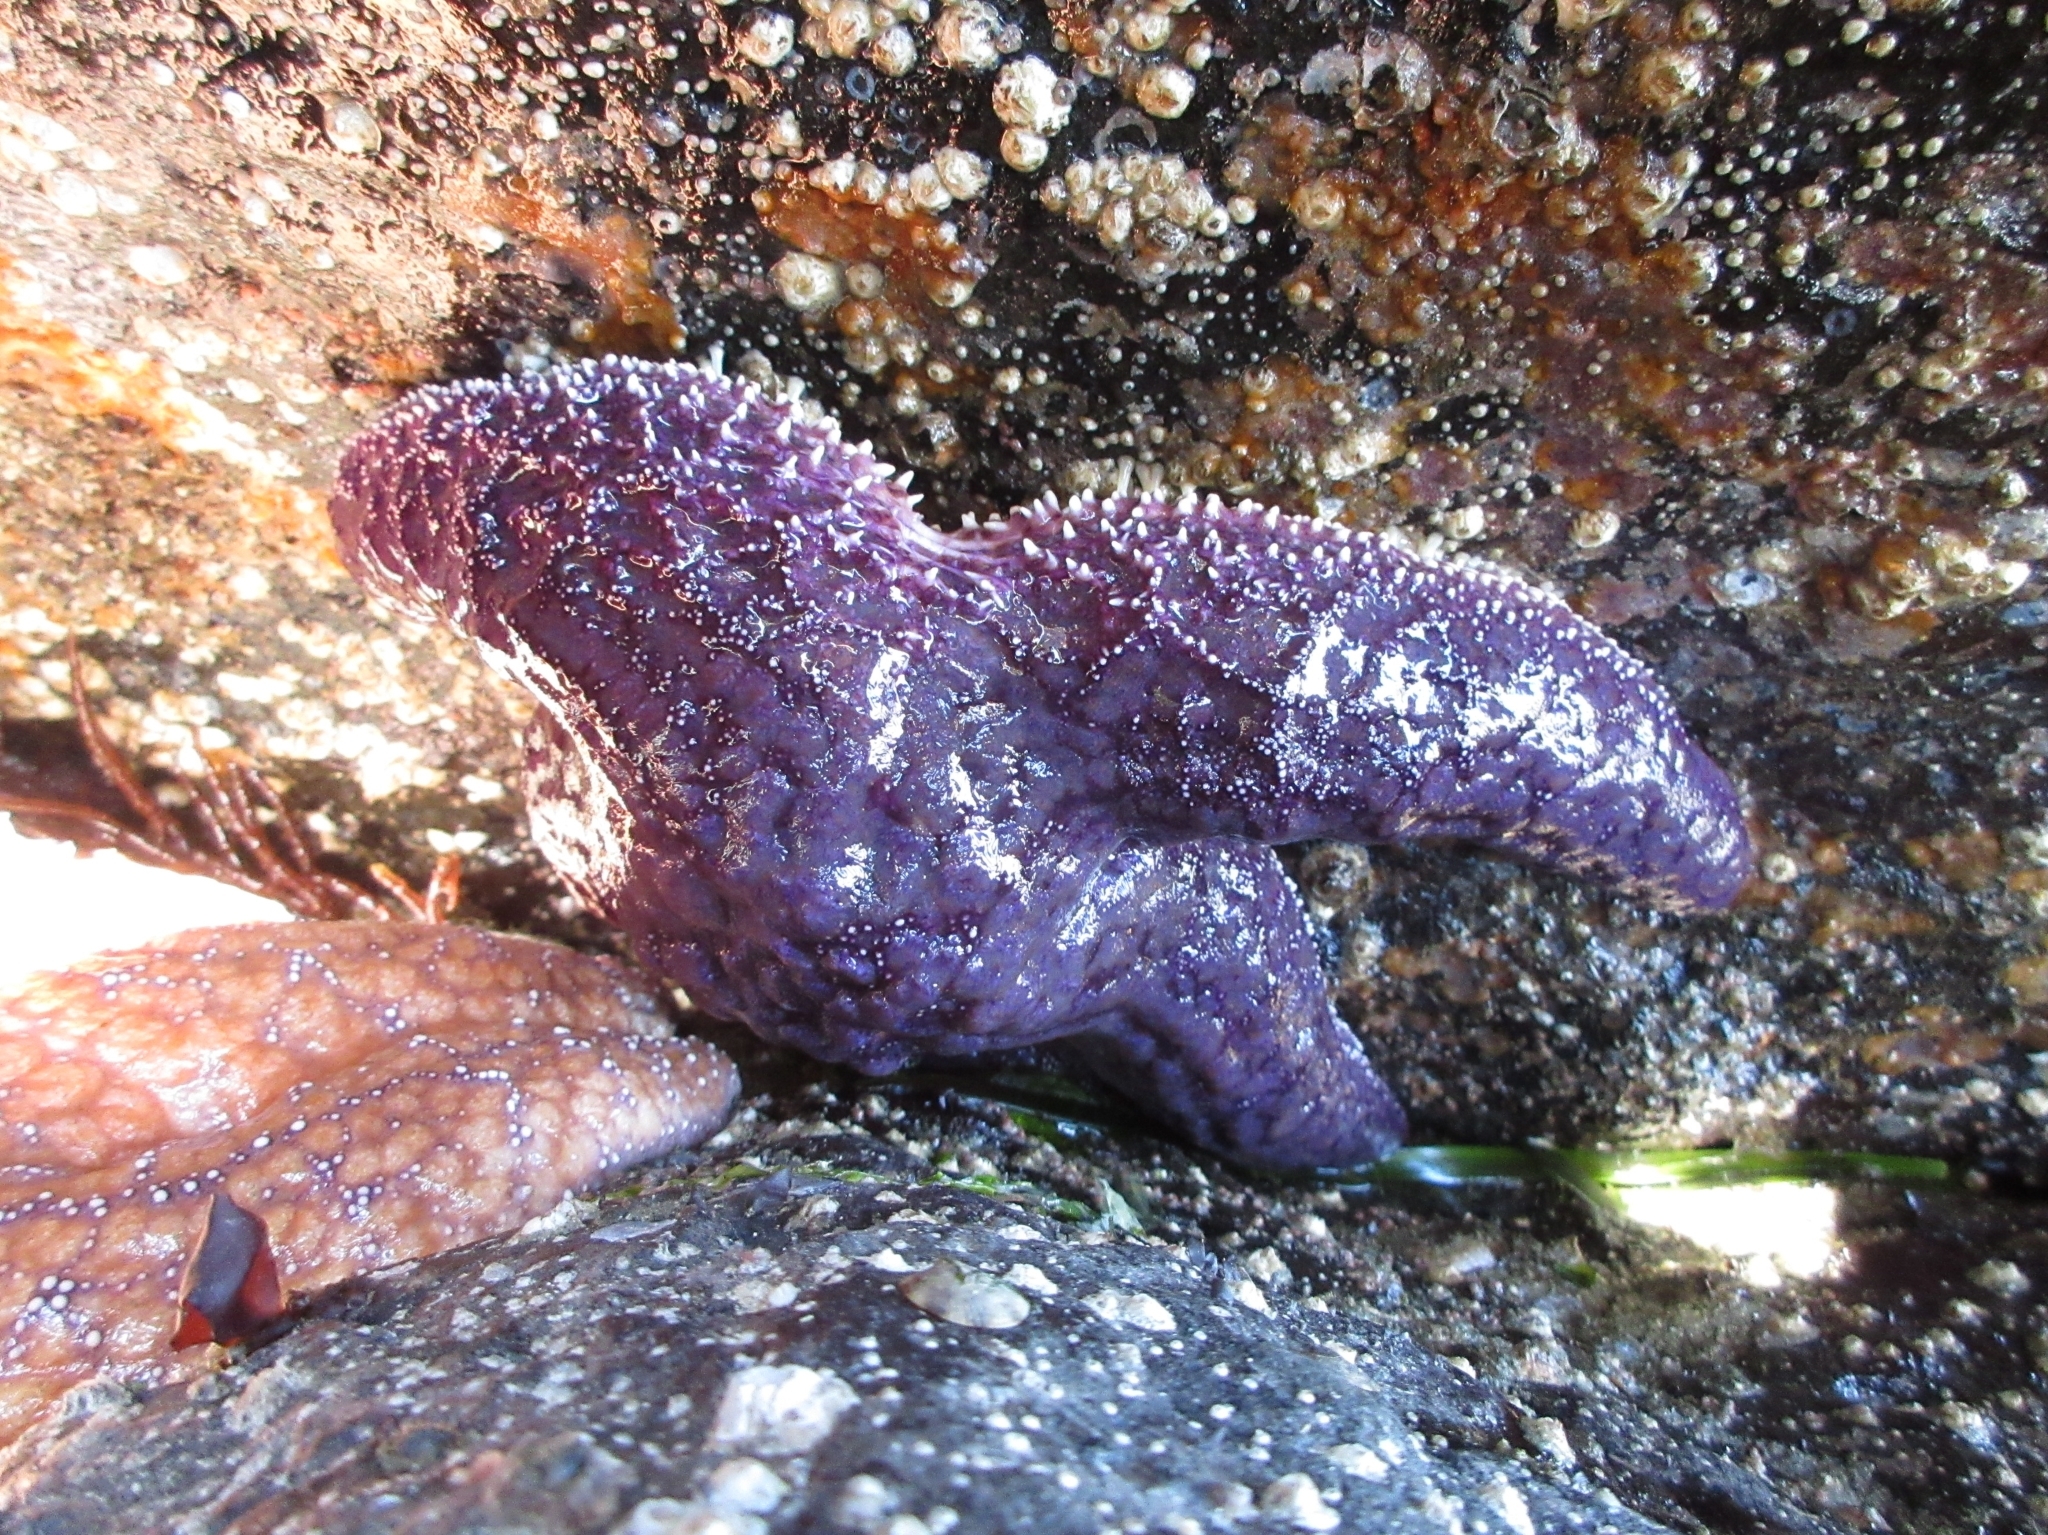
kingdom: Animalia
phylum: Echinodermata
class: Asteroidea
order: Forcipulatida
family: Asteriidae
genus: Pisaster
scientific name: Pisaster ochraceus
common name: Ochre stars
